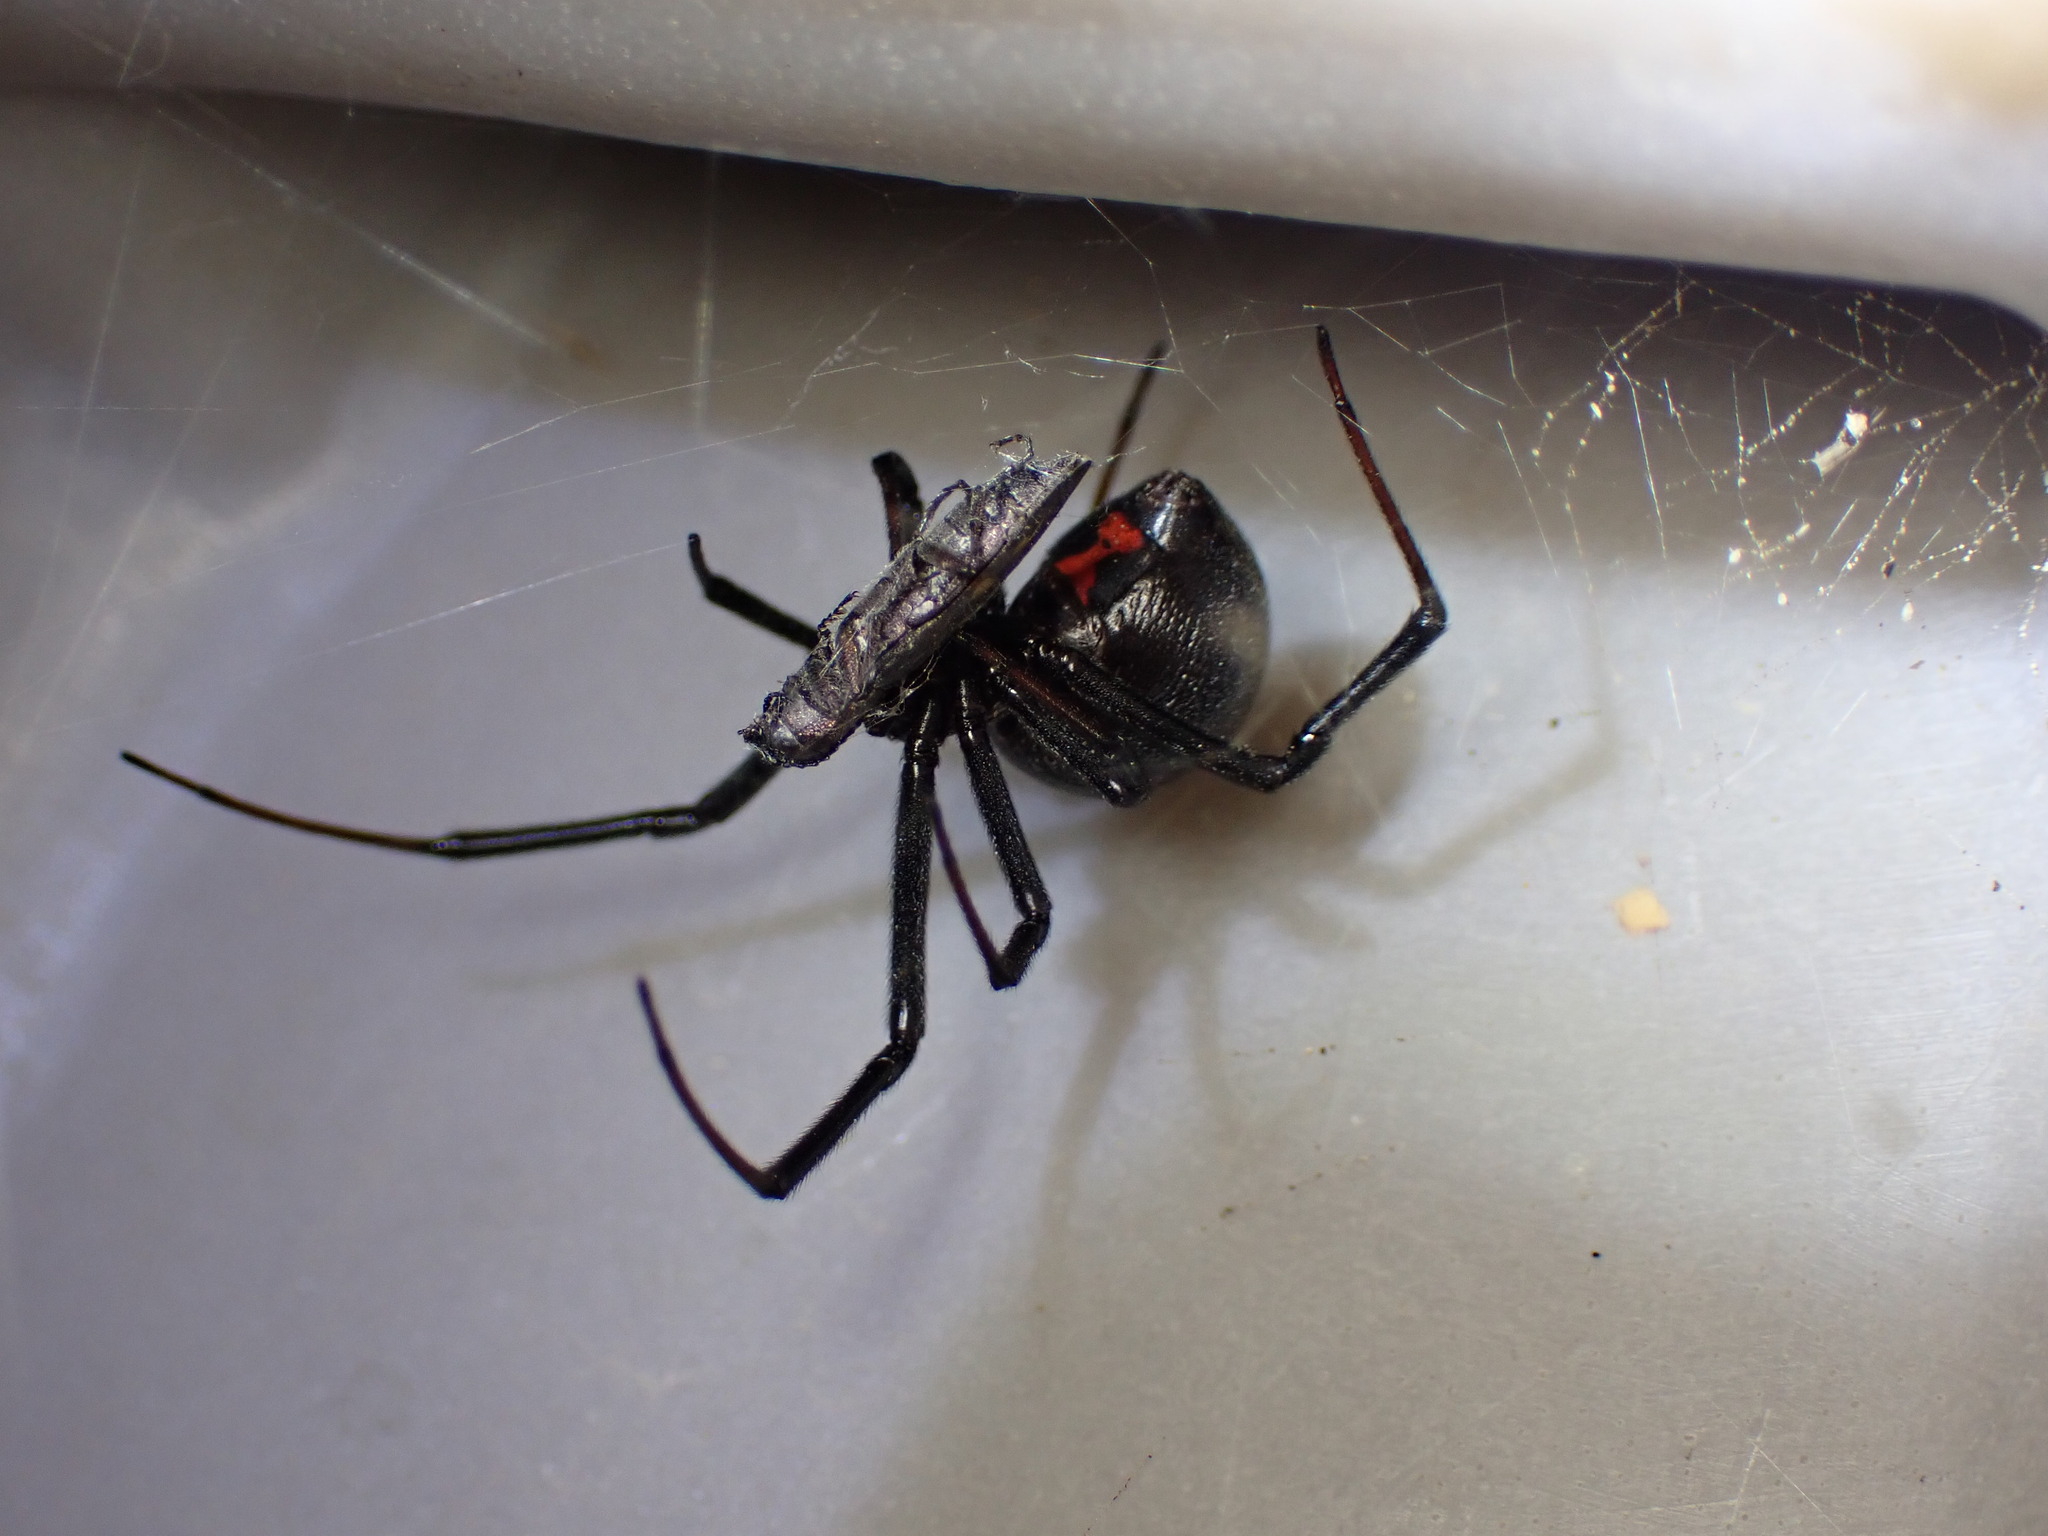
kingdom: Animalia
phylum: Arthropoda
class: Arachnida
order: Araneae
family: Theridiidae
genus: Latrodectus
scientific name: Latrodectus hesperus
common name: Western black widow
